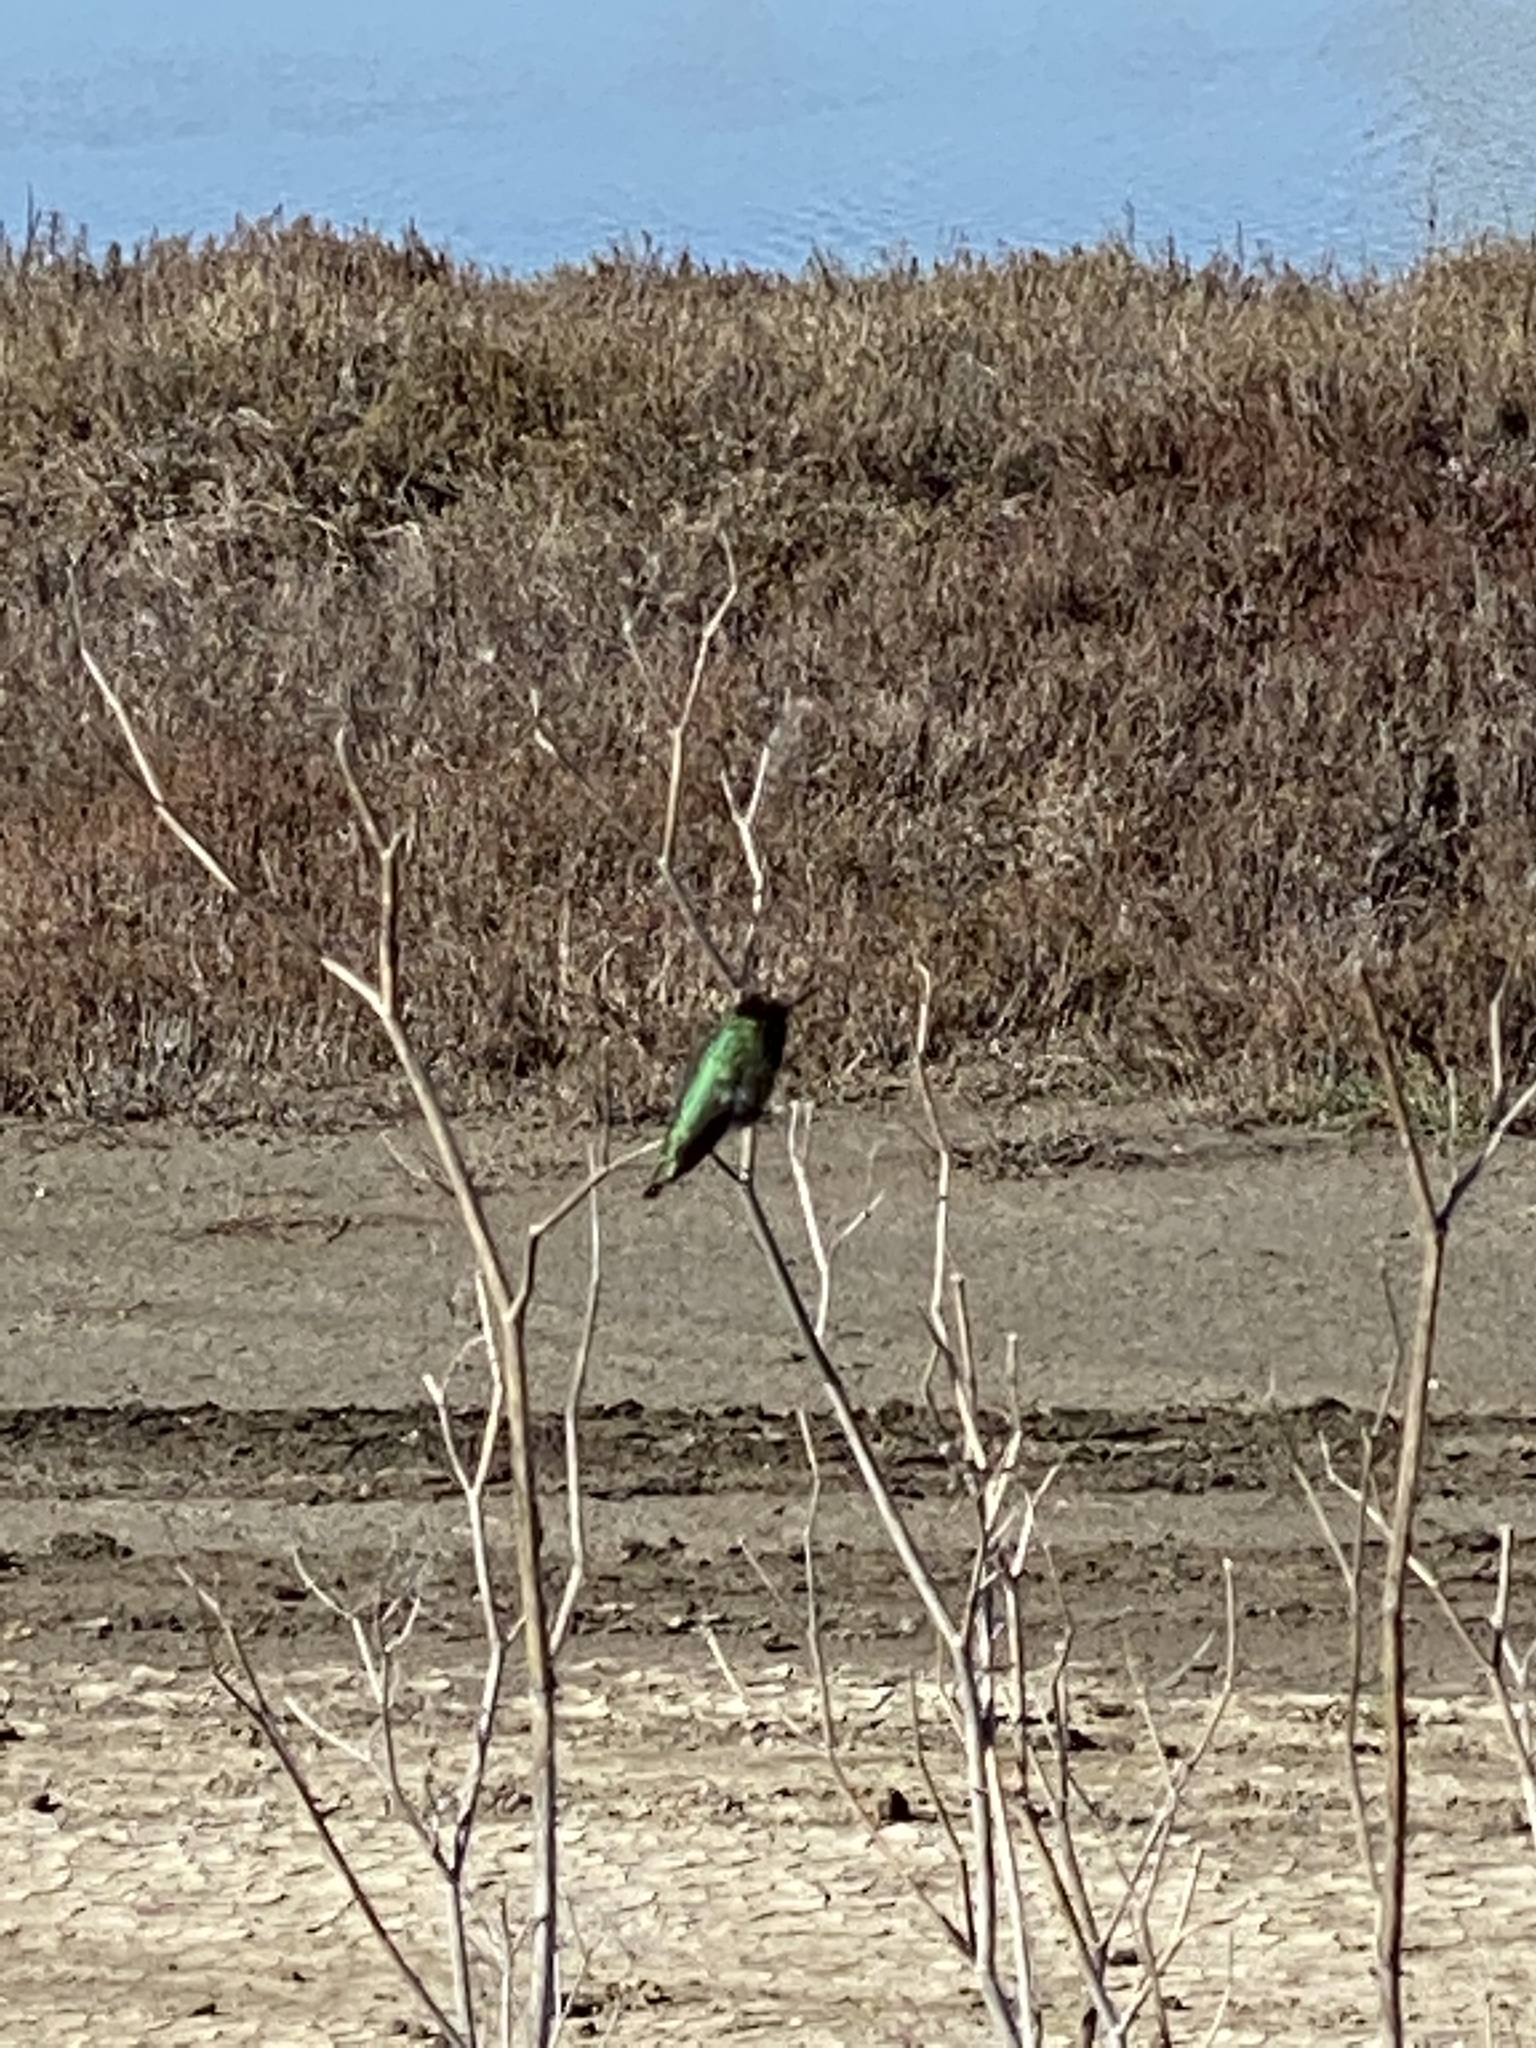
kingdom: Animalia
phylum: Chordata
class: Aves
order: Apodiformes
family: Trochilidae
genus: Calypte
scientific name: Calypte anna
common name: Anna's hummingbird
